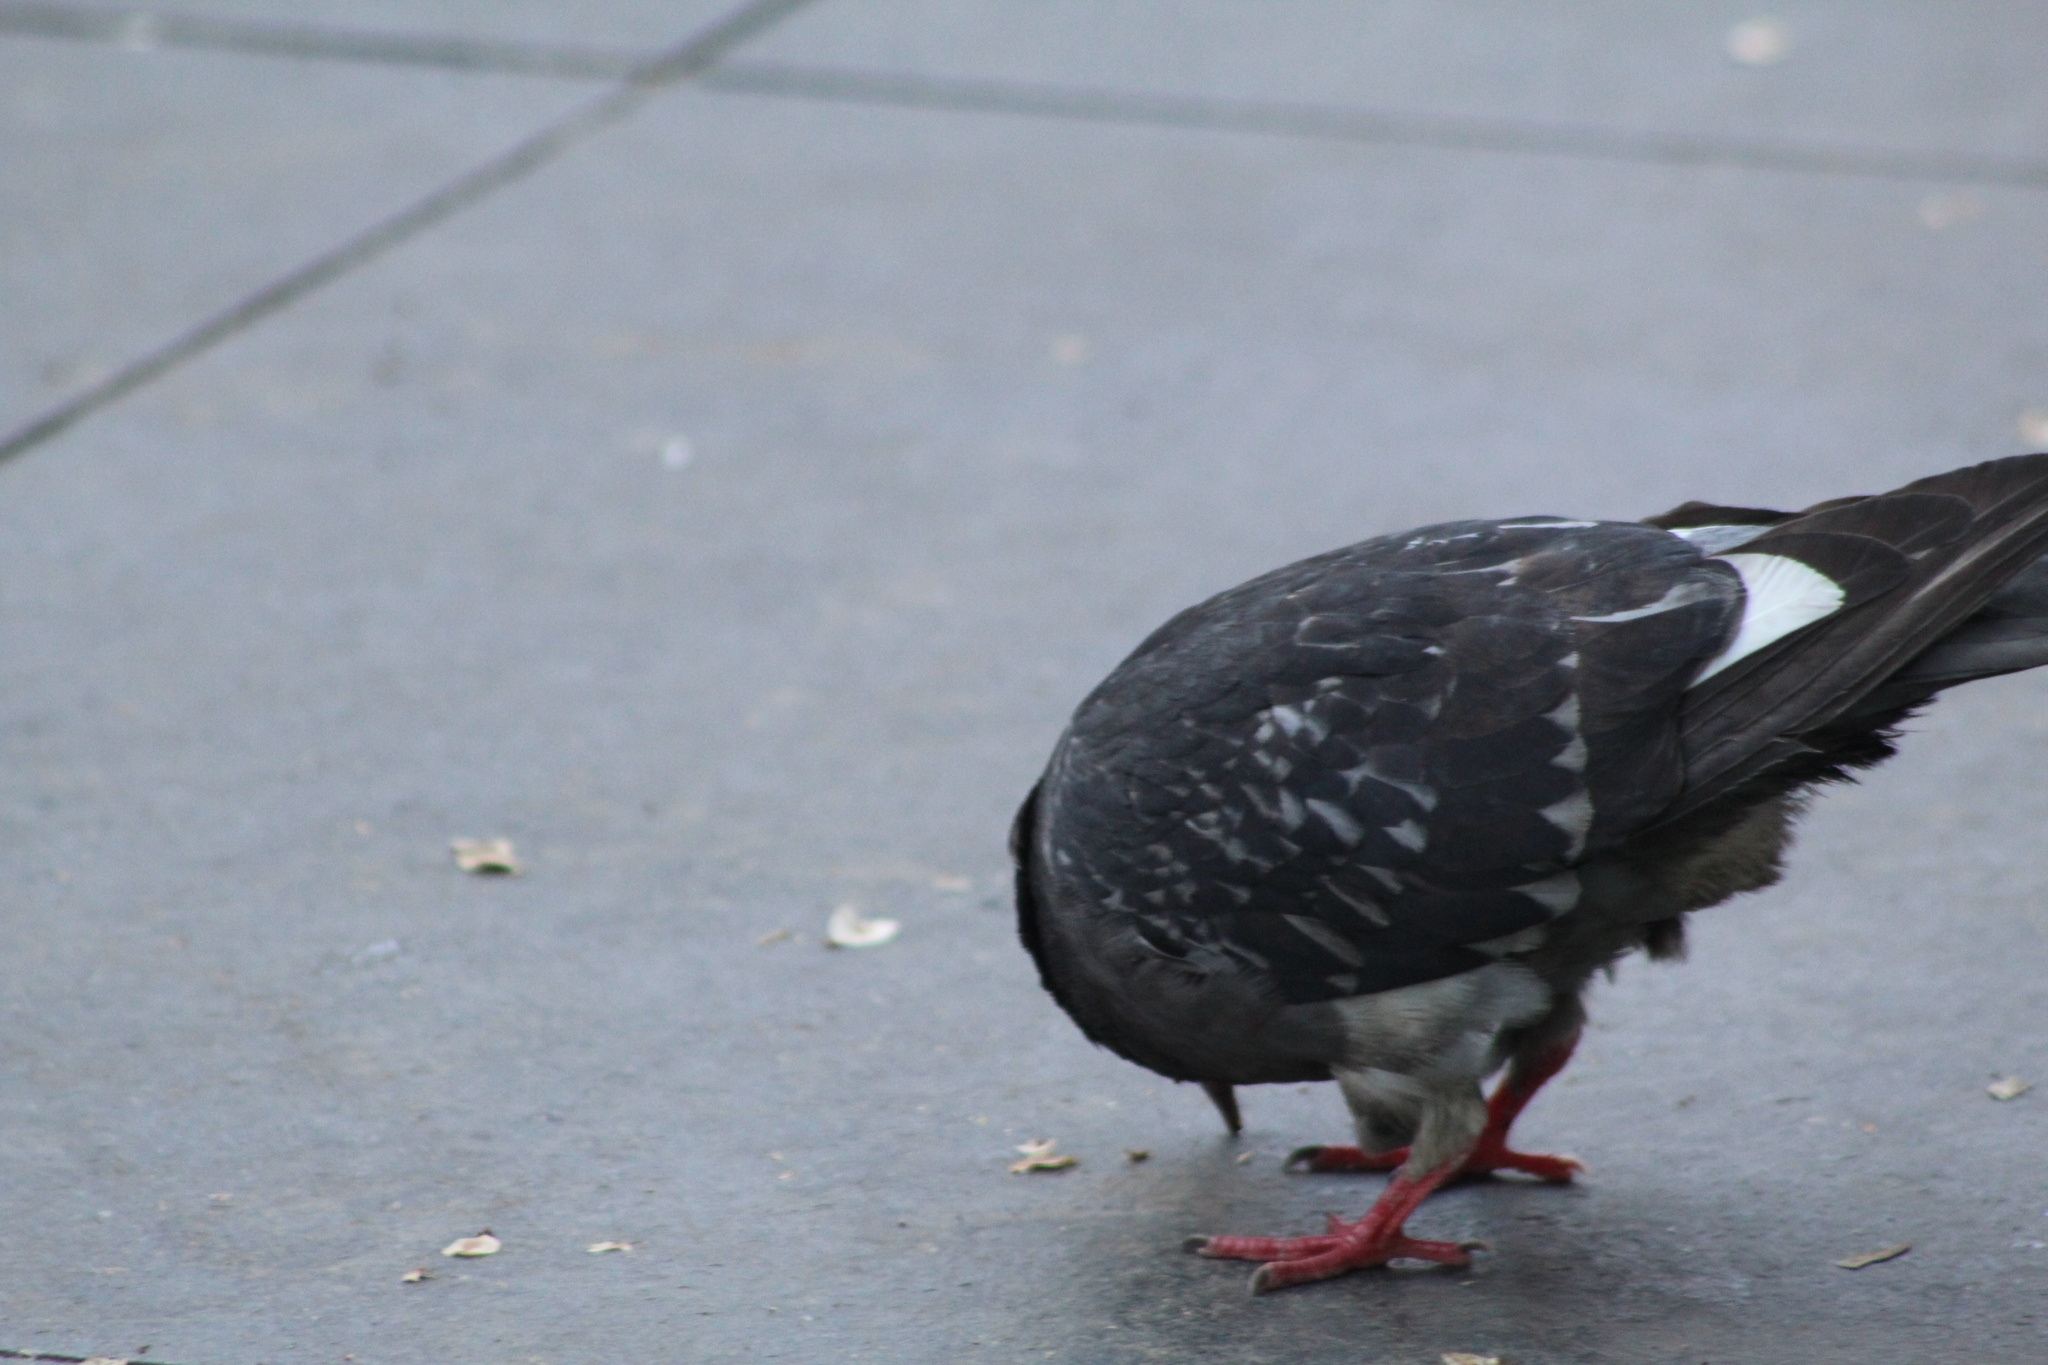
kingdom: Animalia
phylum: Chordata
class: Aves
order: Columbiformes
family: Columbidae
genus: Columba
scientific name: Columba livia
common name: Rock pigeon
